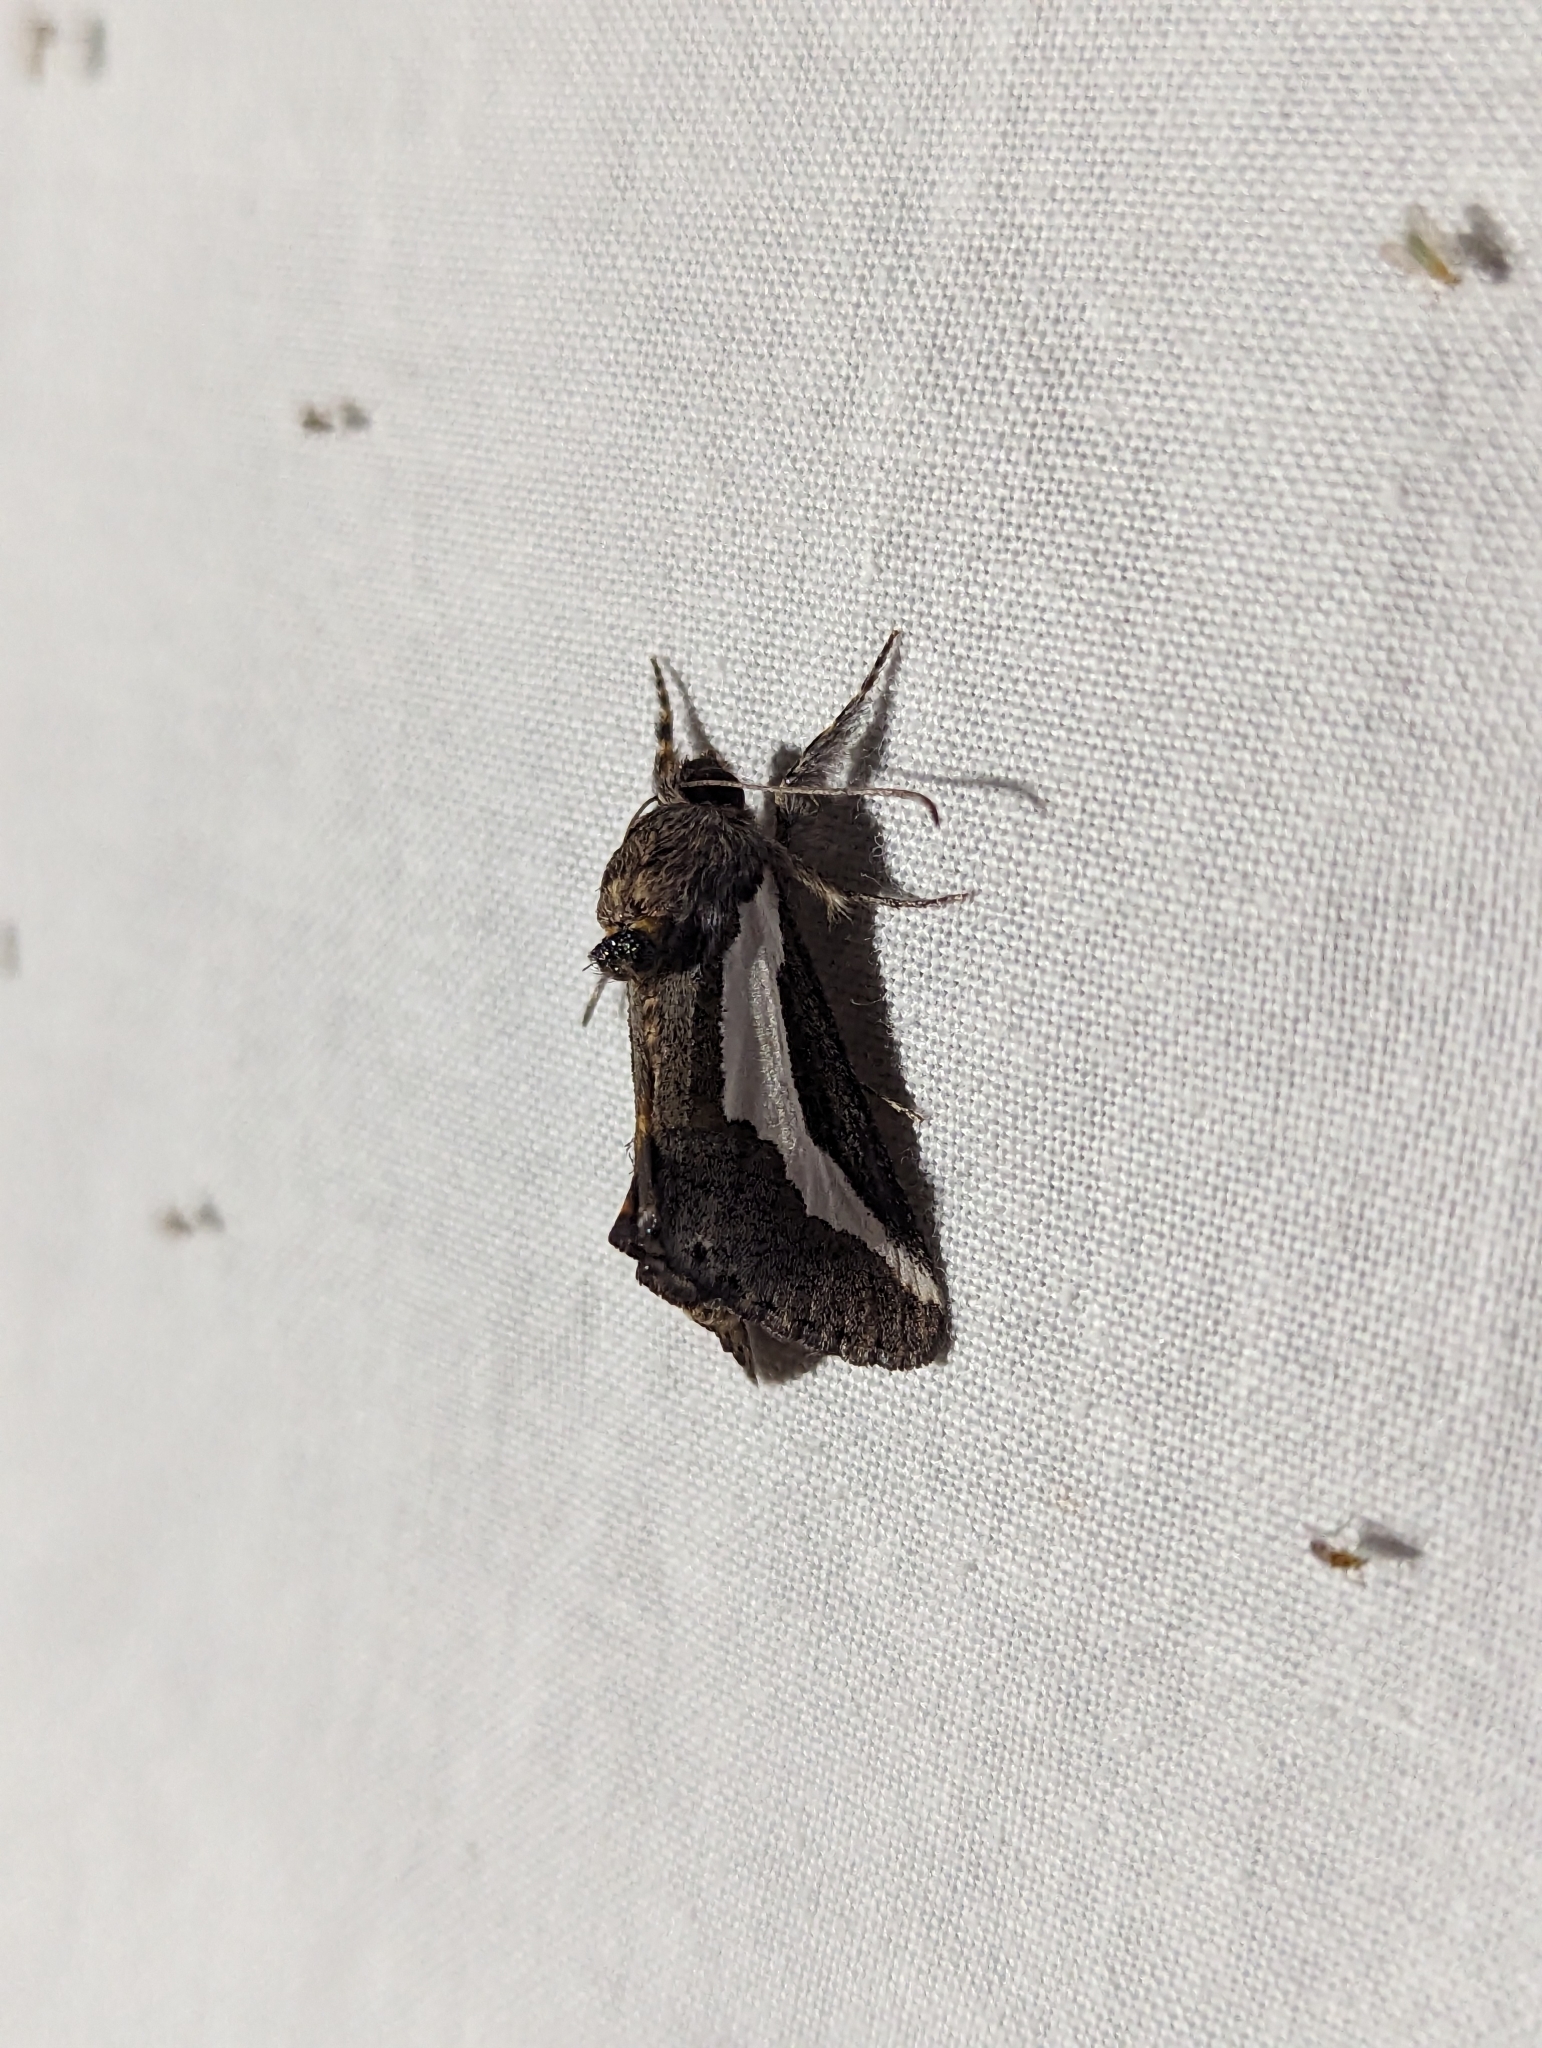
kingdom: Animalia
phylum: Arthropoda
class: Insecta
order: Lepidoptera
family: Noctuidae
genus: Euscirrhopterus
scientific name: Euscirrhopterus cosyra
